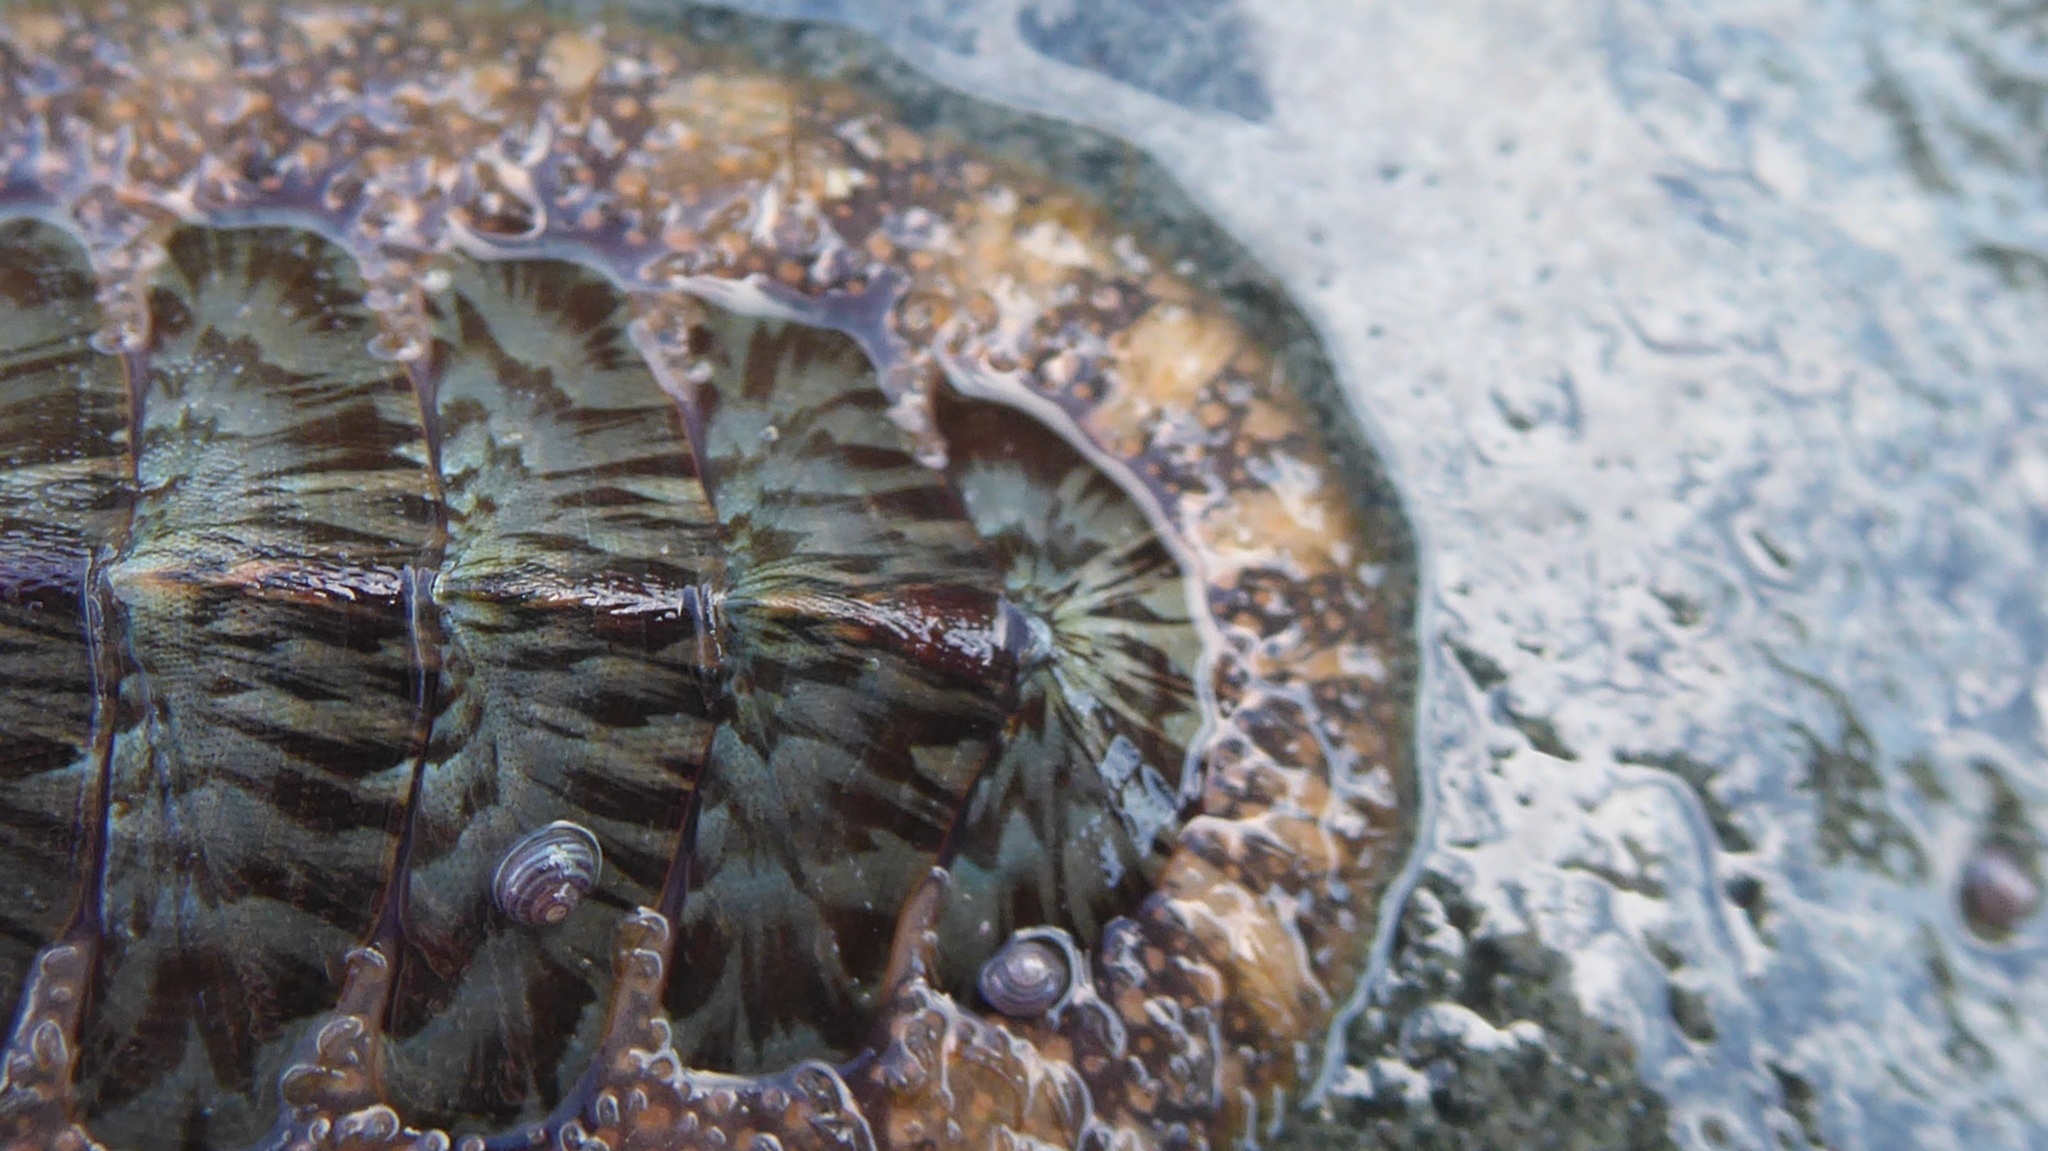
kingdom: Animalia
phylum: Mollusca
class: Polyplacophora
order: Chitonida
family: Mopaliidae
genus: Mopalia
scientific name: Mopalia lignosa
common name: Woody chiton
